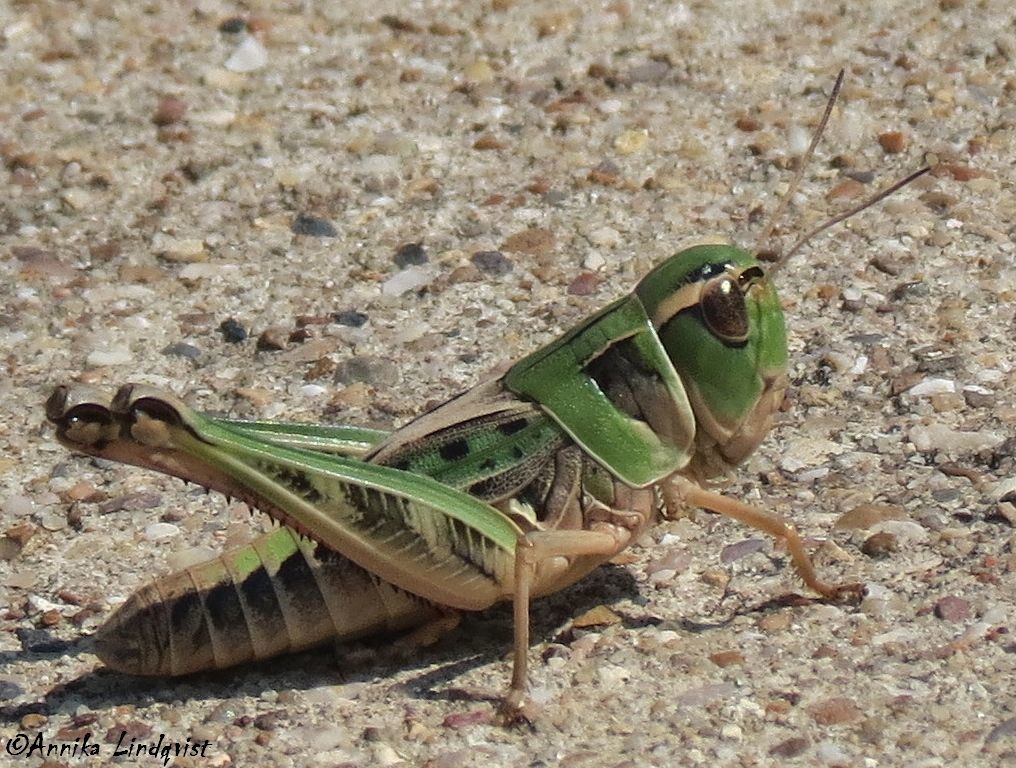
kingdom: Animalia
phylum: Arthropoda
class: Insecta
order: Orthoptera
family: Acrididae
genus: Boopedon
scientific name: Boopedon gracile
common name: Graceful range grasshopper
